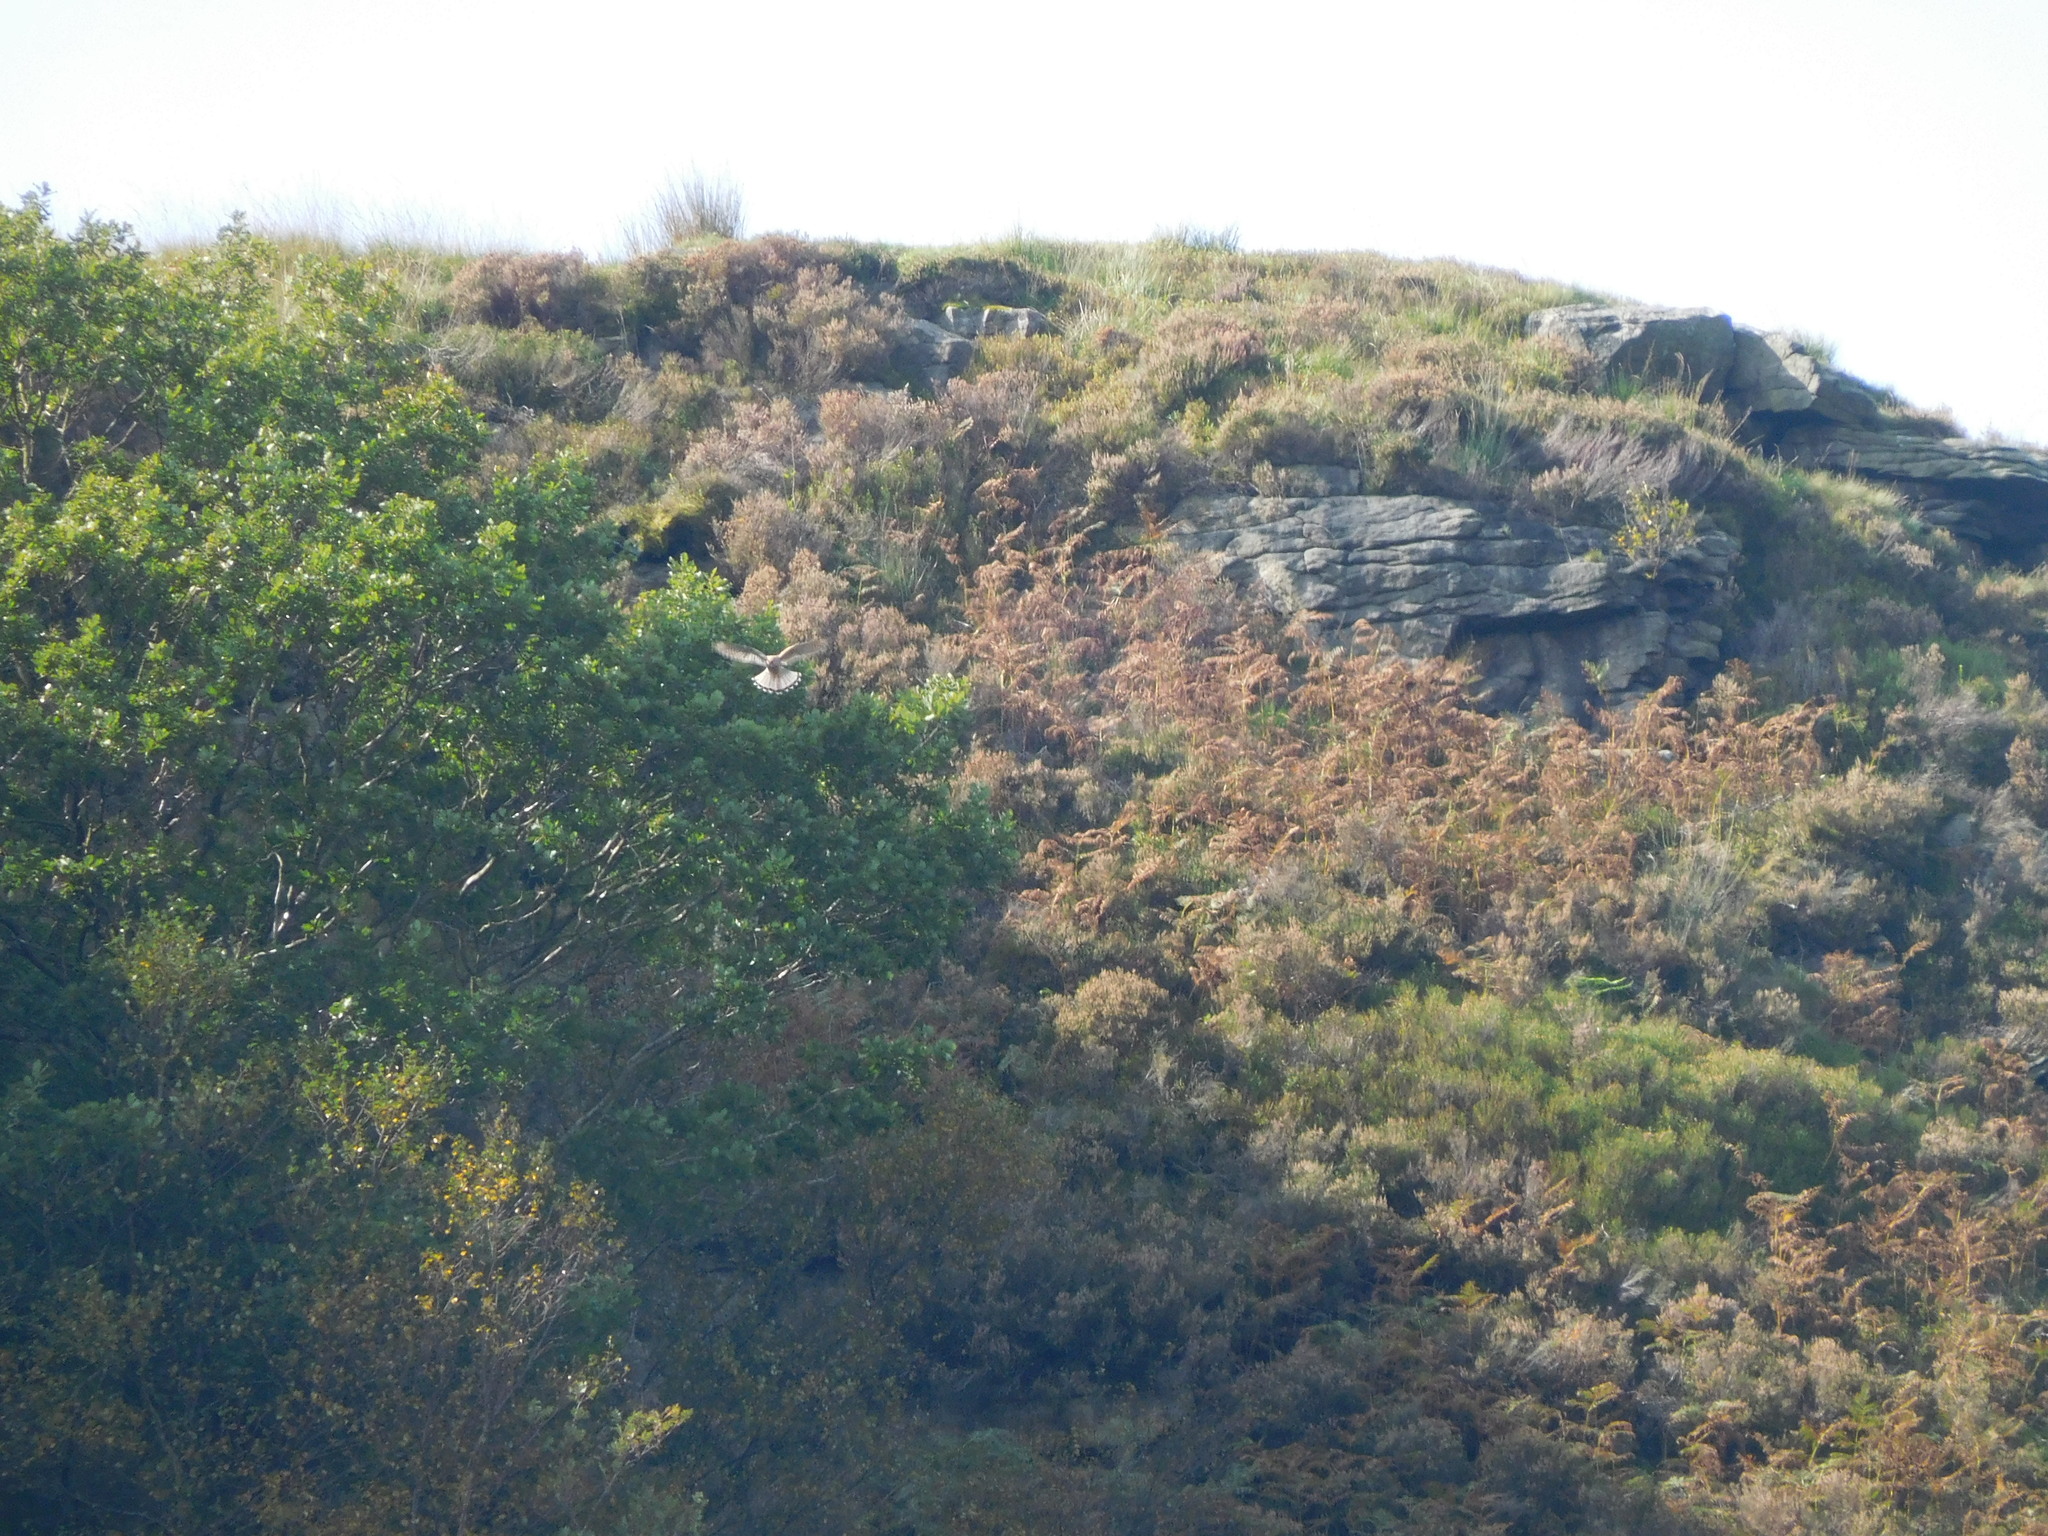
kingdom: Animalia
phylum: Chordata
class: Aves
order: Falconiformes
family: Falconidae
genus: Falco
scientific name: Falco tinnunculus
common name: Common kestrel
